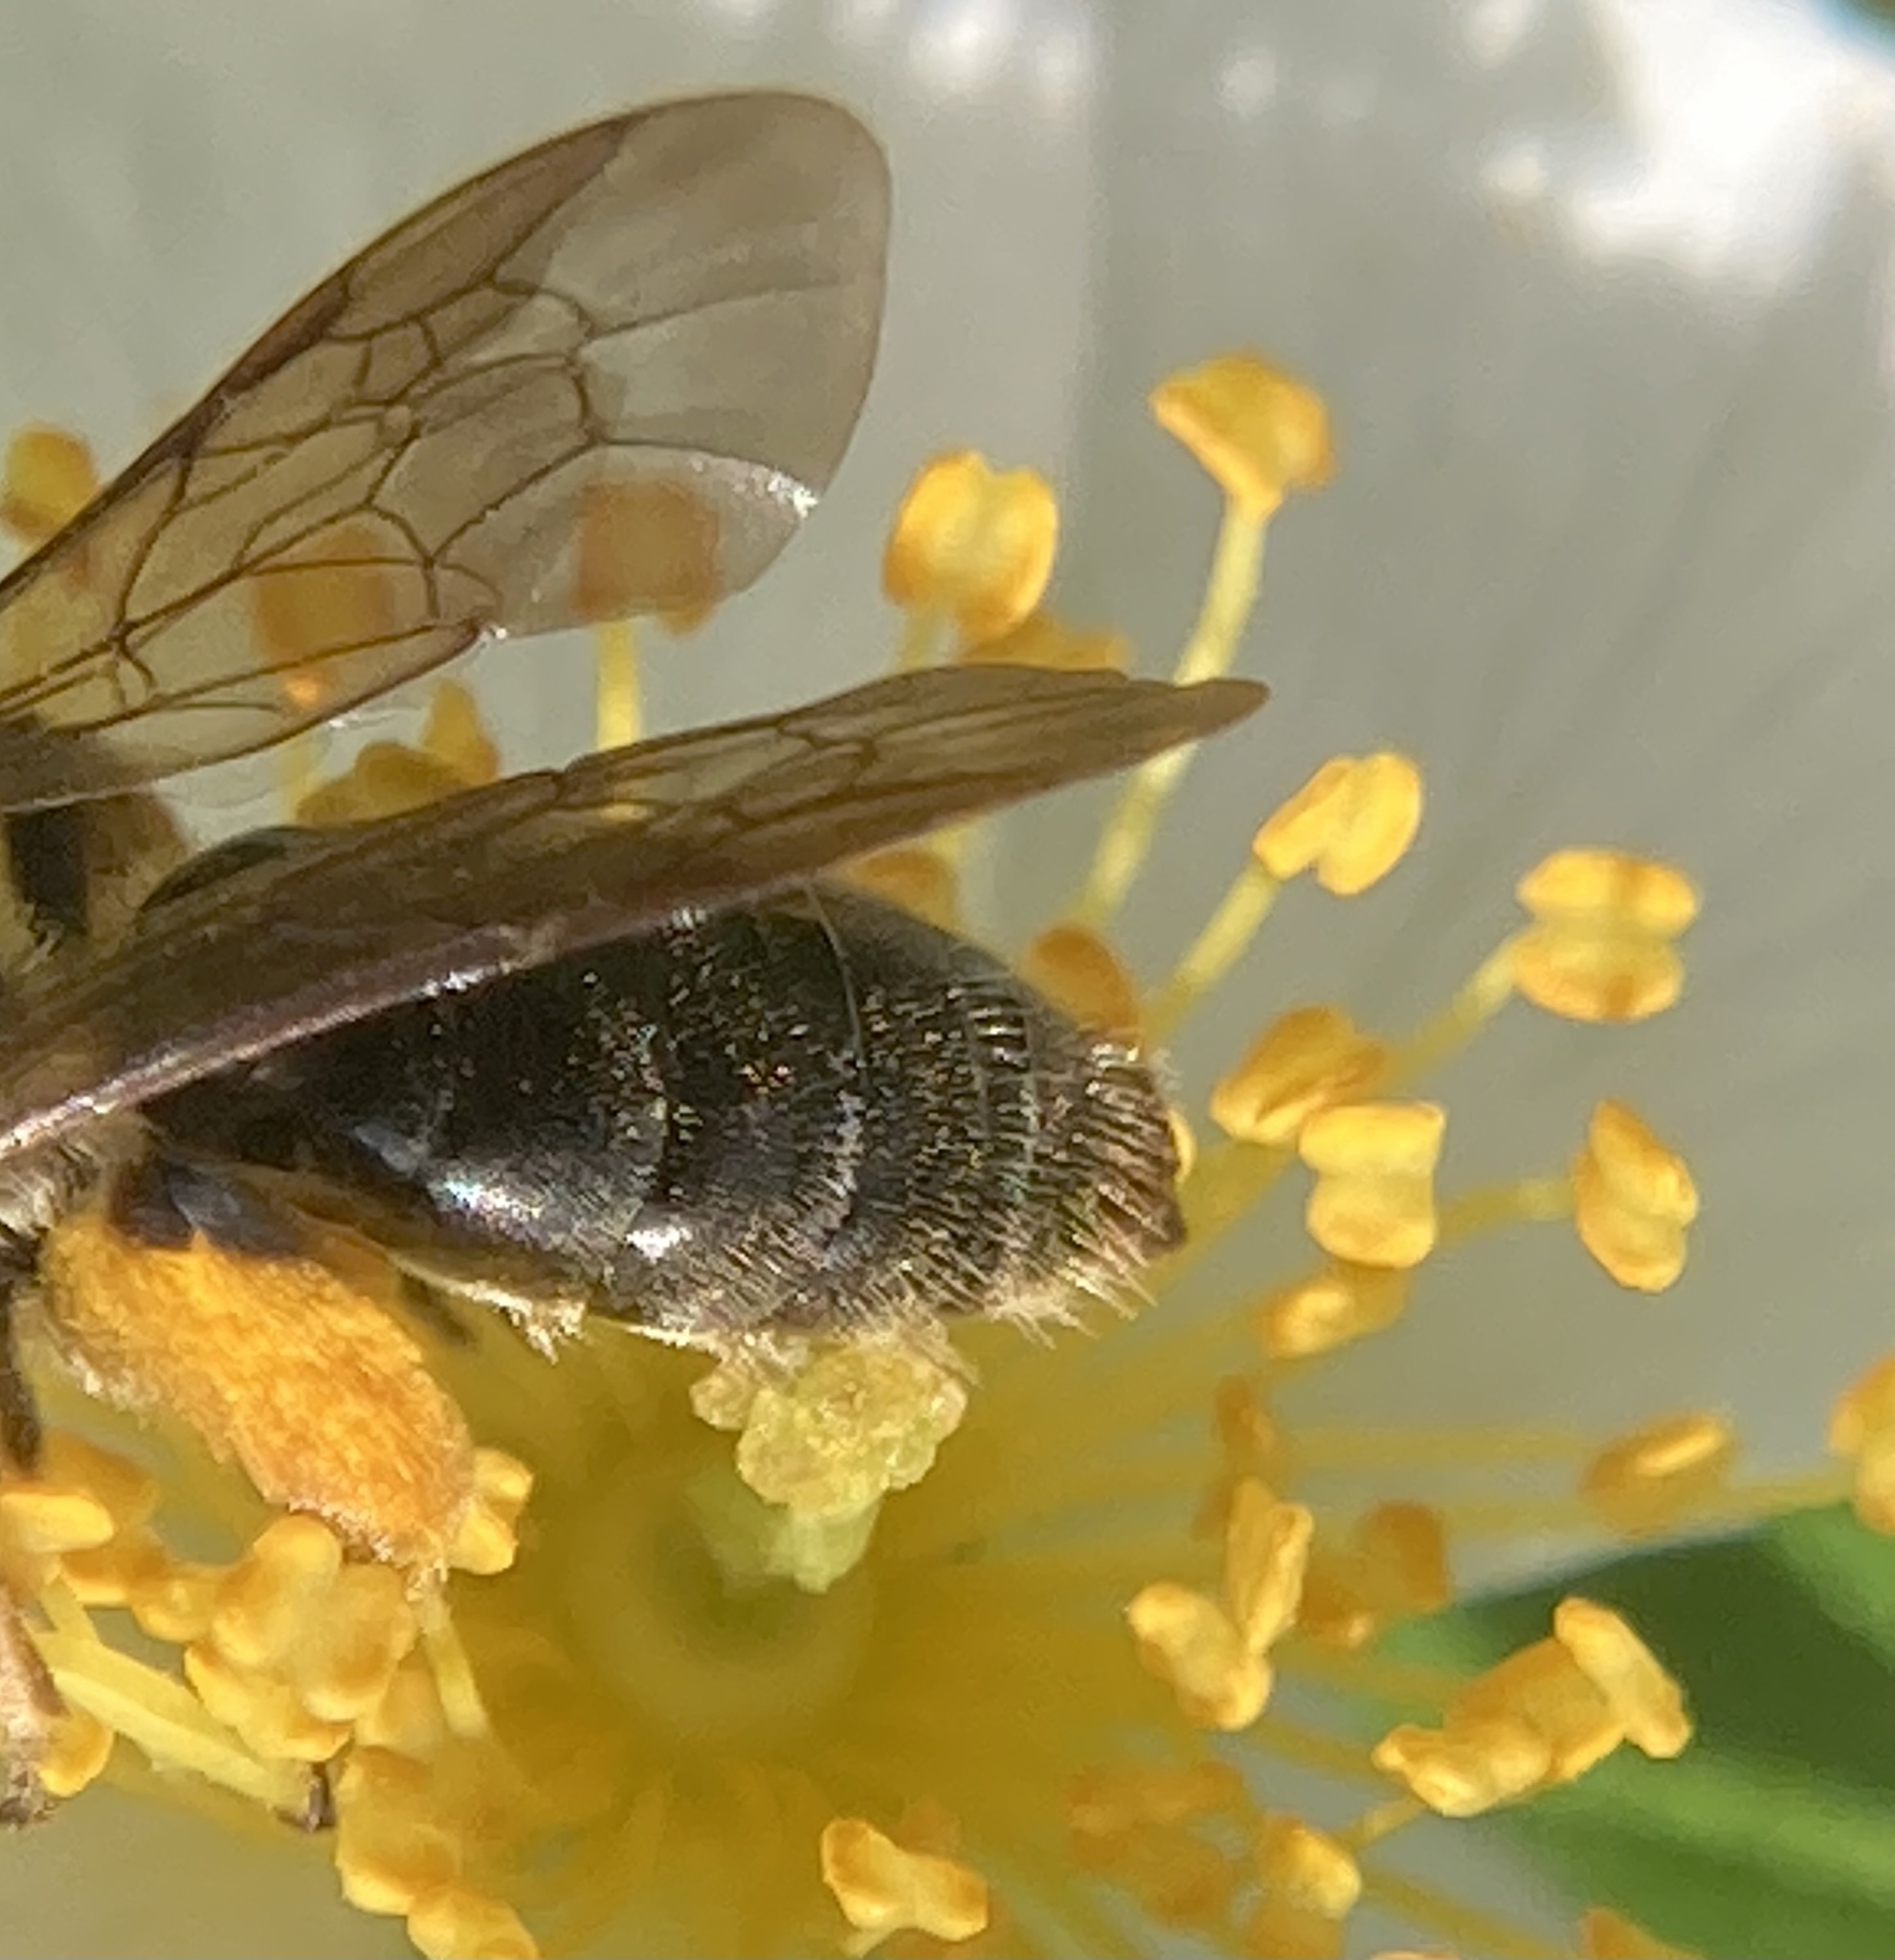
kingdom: Animalia
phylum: Arthropoda
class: Insecta
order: Hymenoptera
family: Andrenidae
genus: Andrena
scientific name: Andrena
